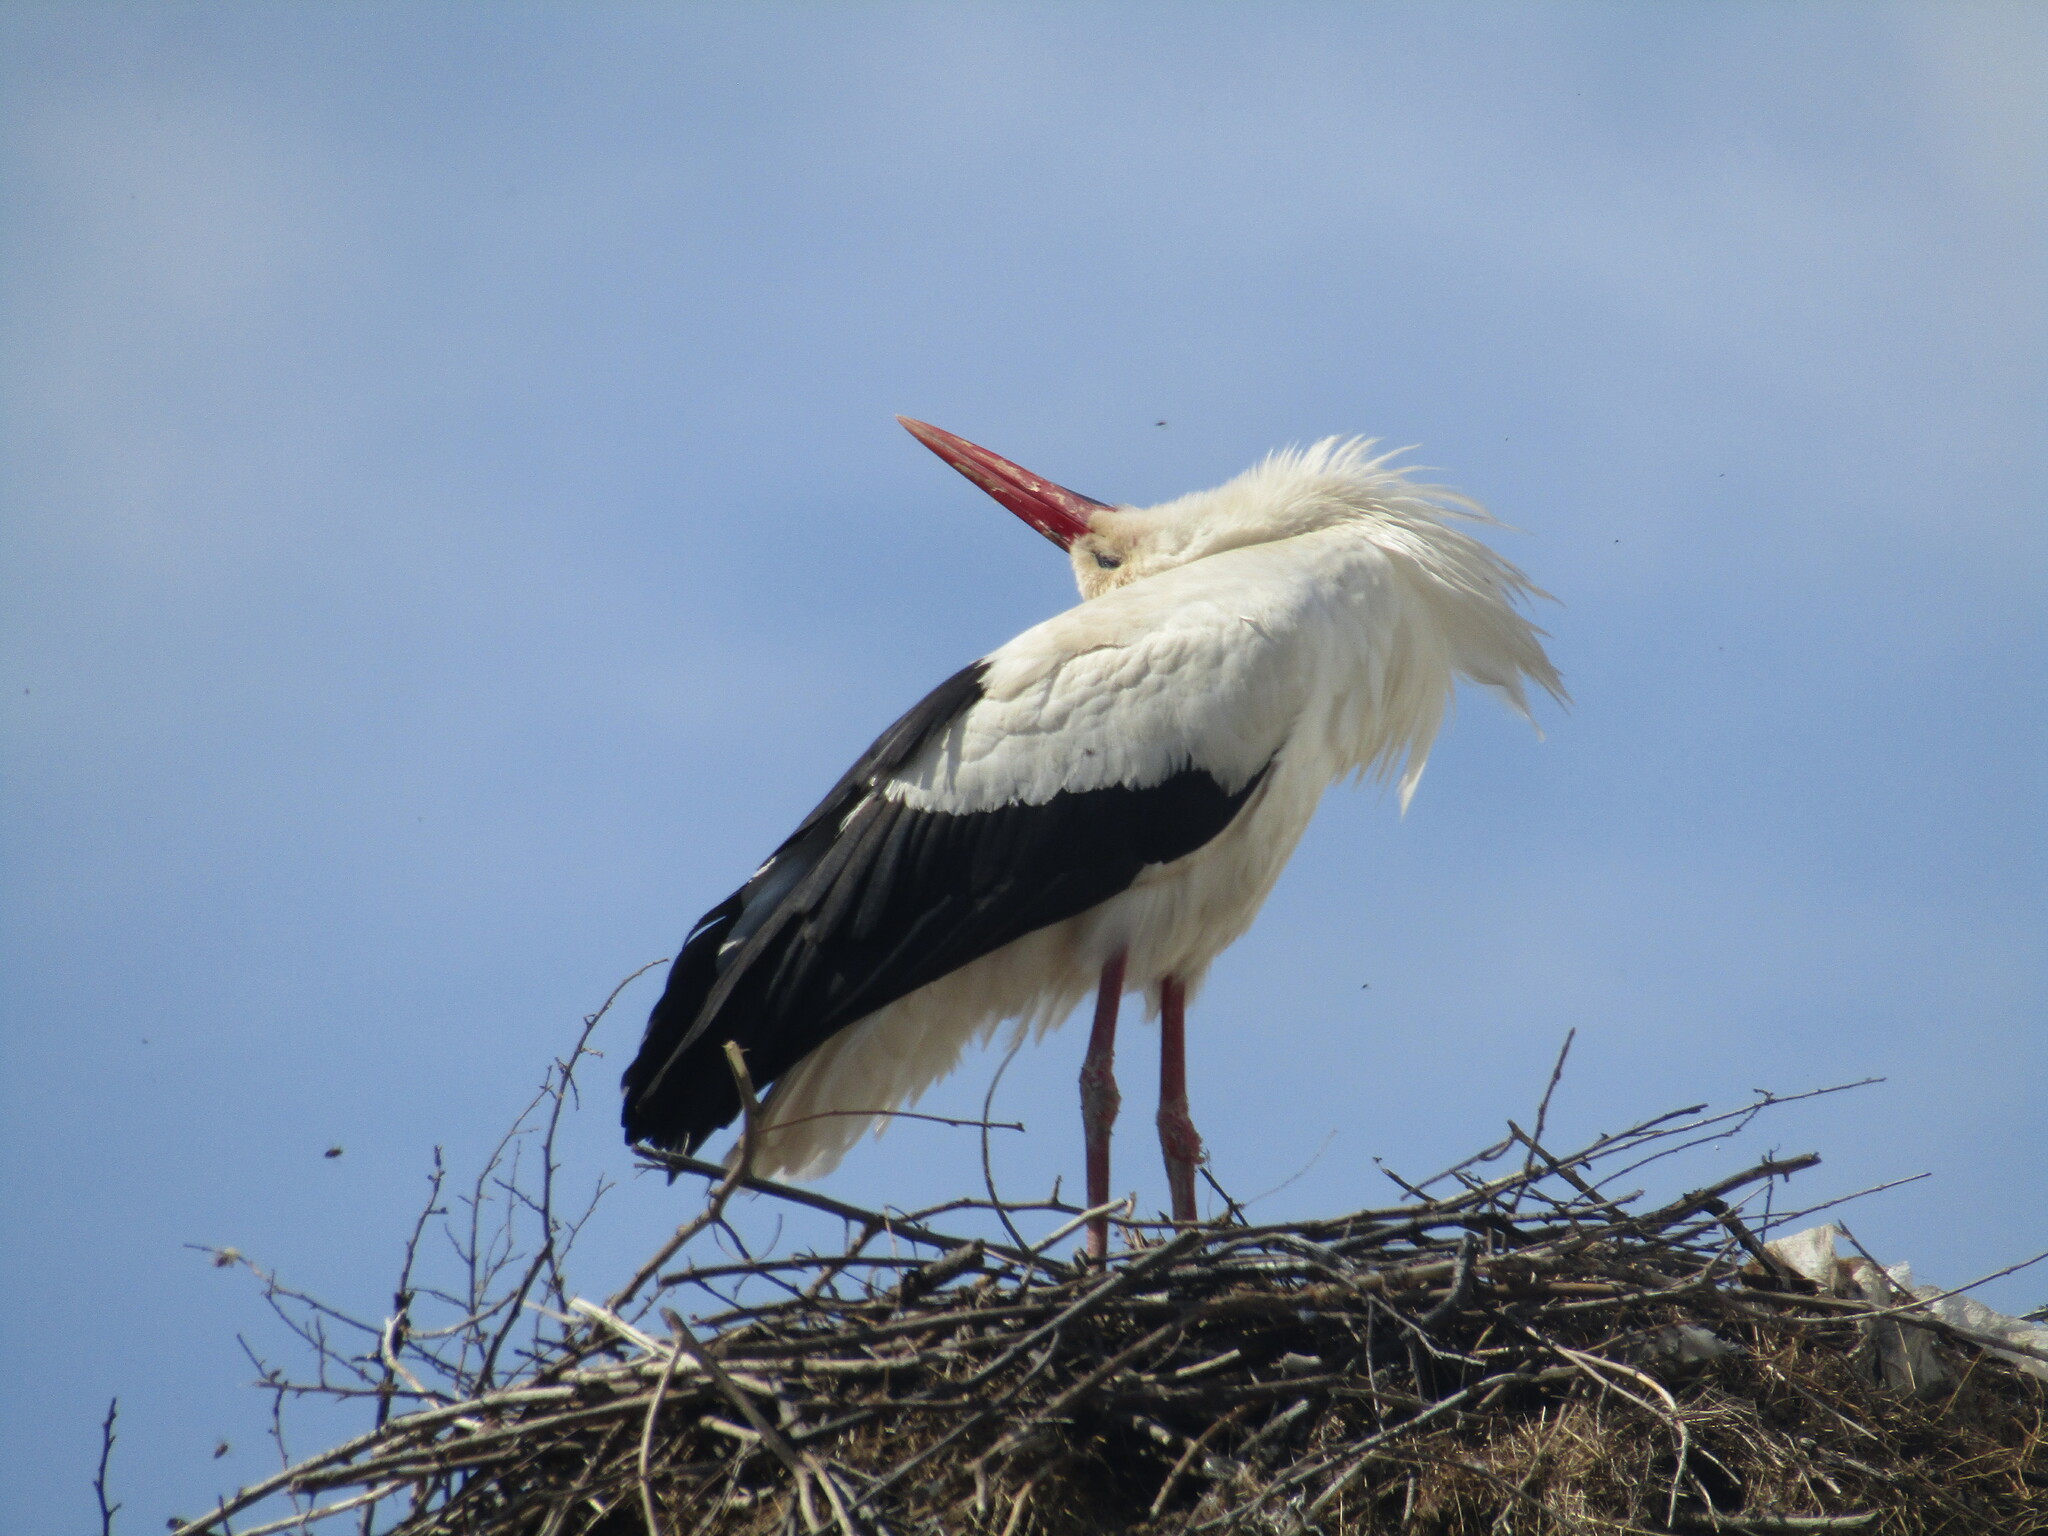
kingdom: Animalia
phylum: Chordata
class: Aves
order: Ciconiiformes
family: Ciconiidae
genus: Ciconia
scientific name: Ciconia ciconia
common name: White stork
